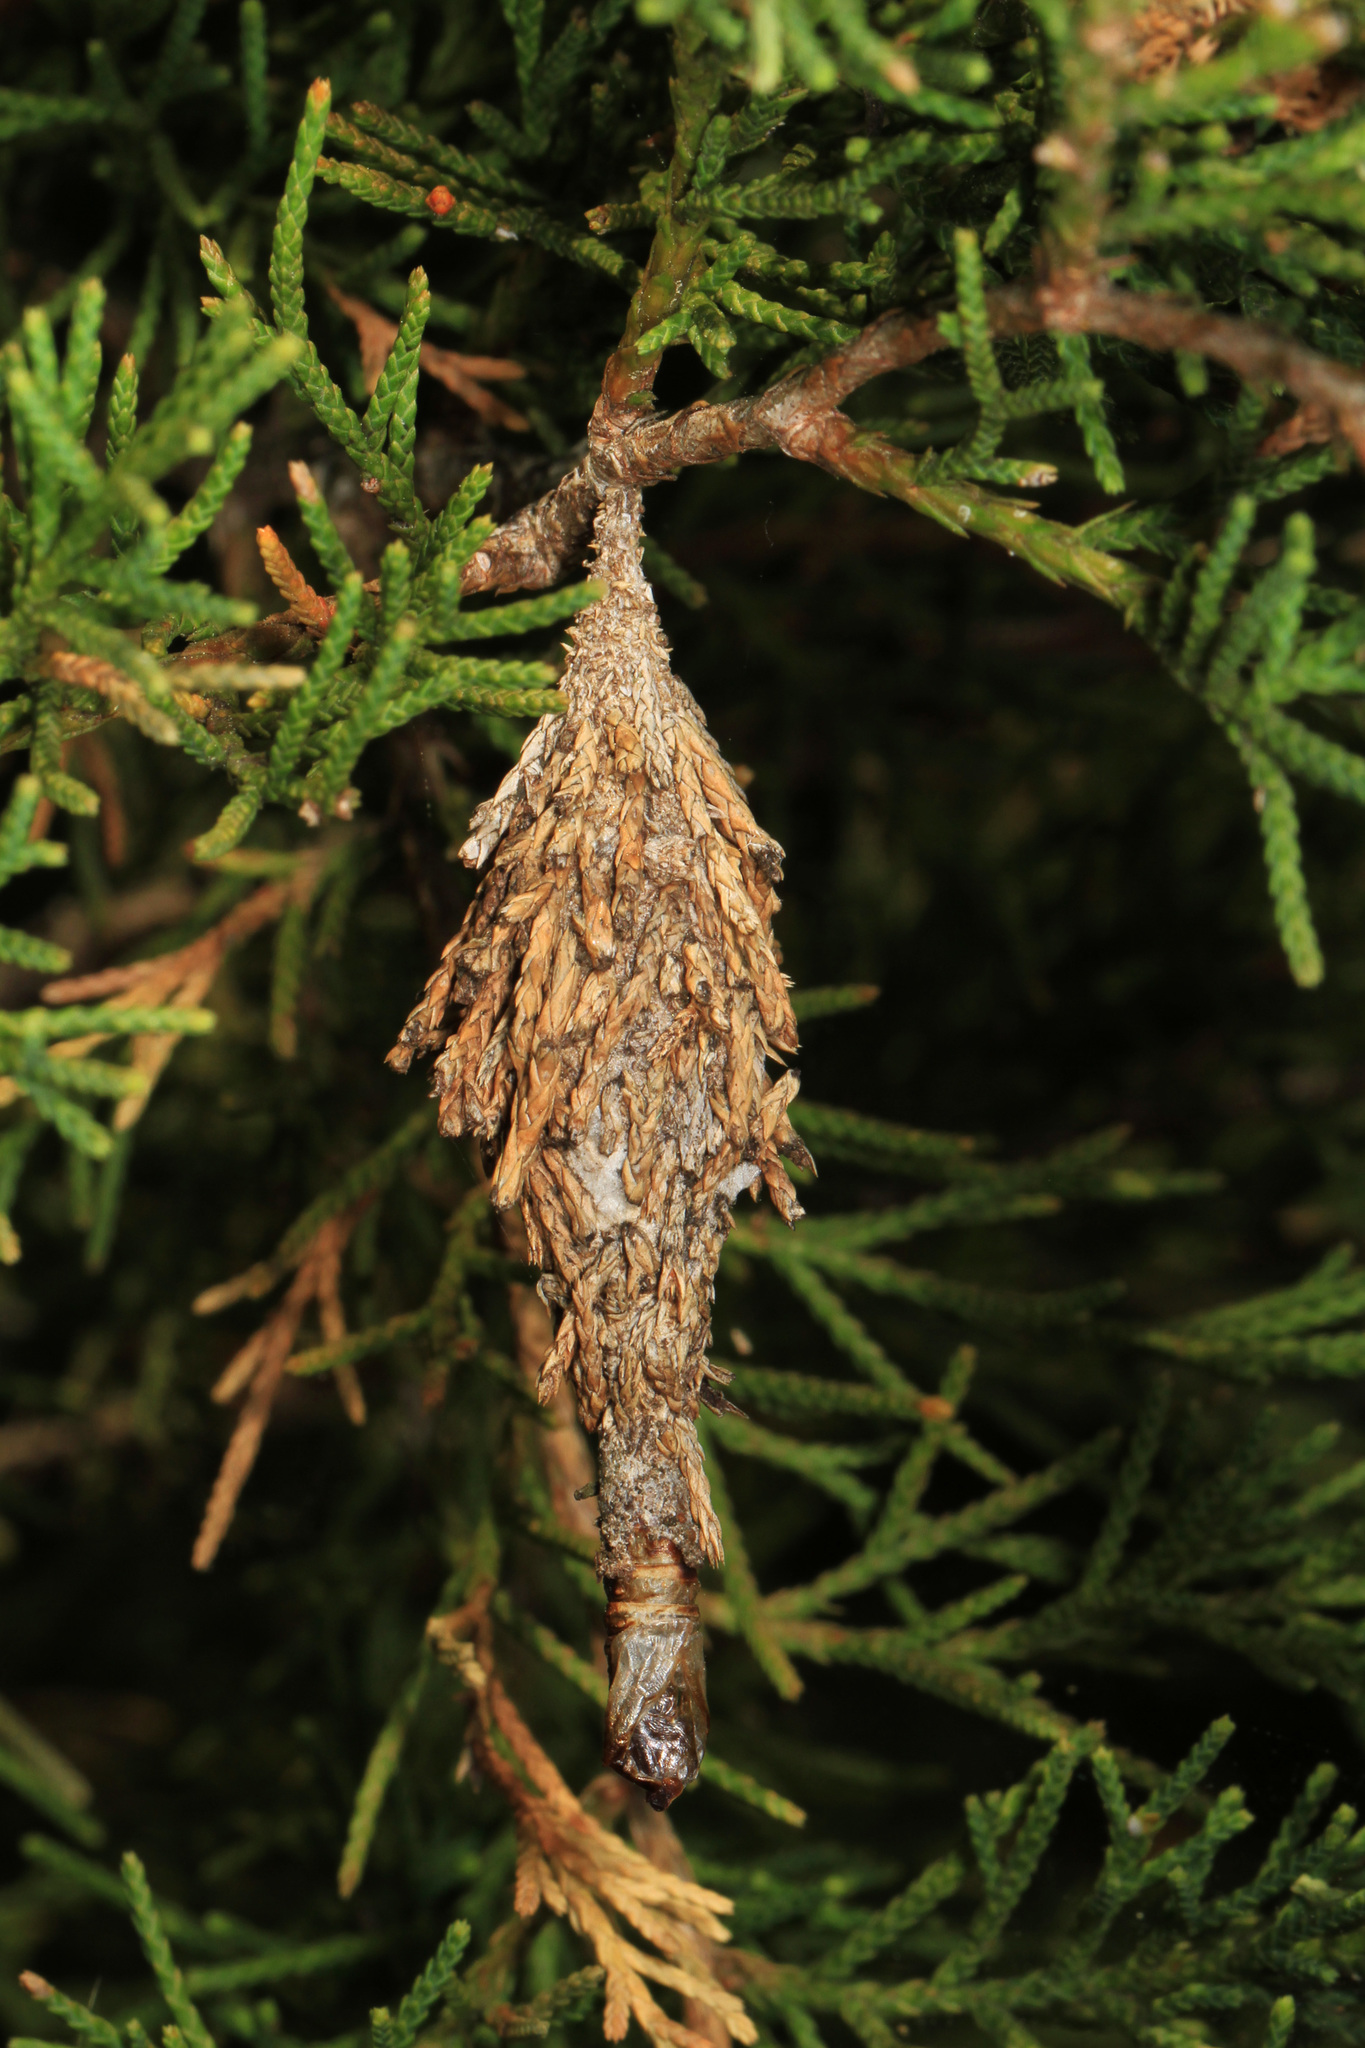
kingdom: Animalia
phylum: Arthropoda
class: Insecta
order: Lepidoptera
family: Psychidae
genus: Thyridopteryx
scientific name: Thyridopteryx ephemeraeformis
